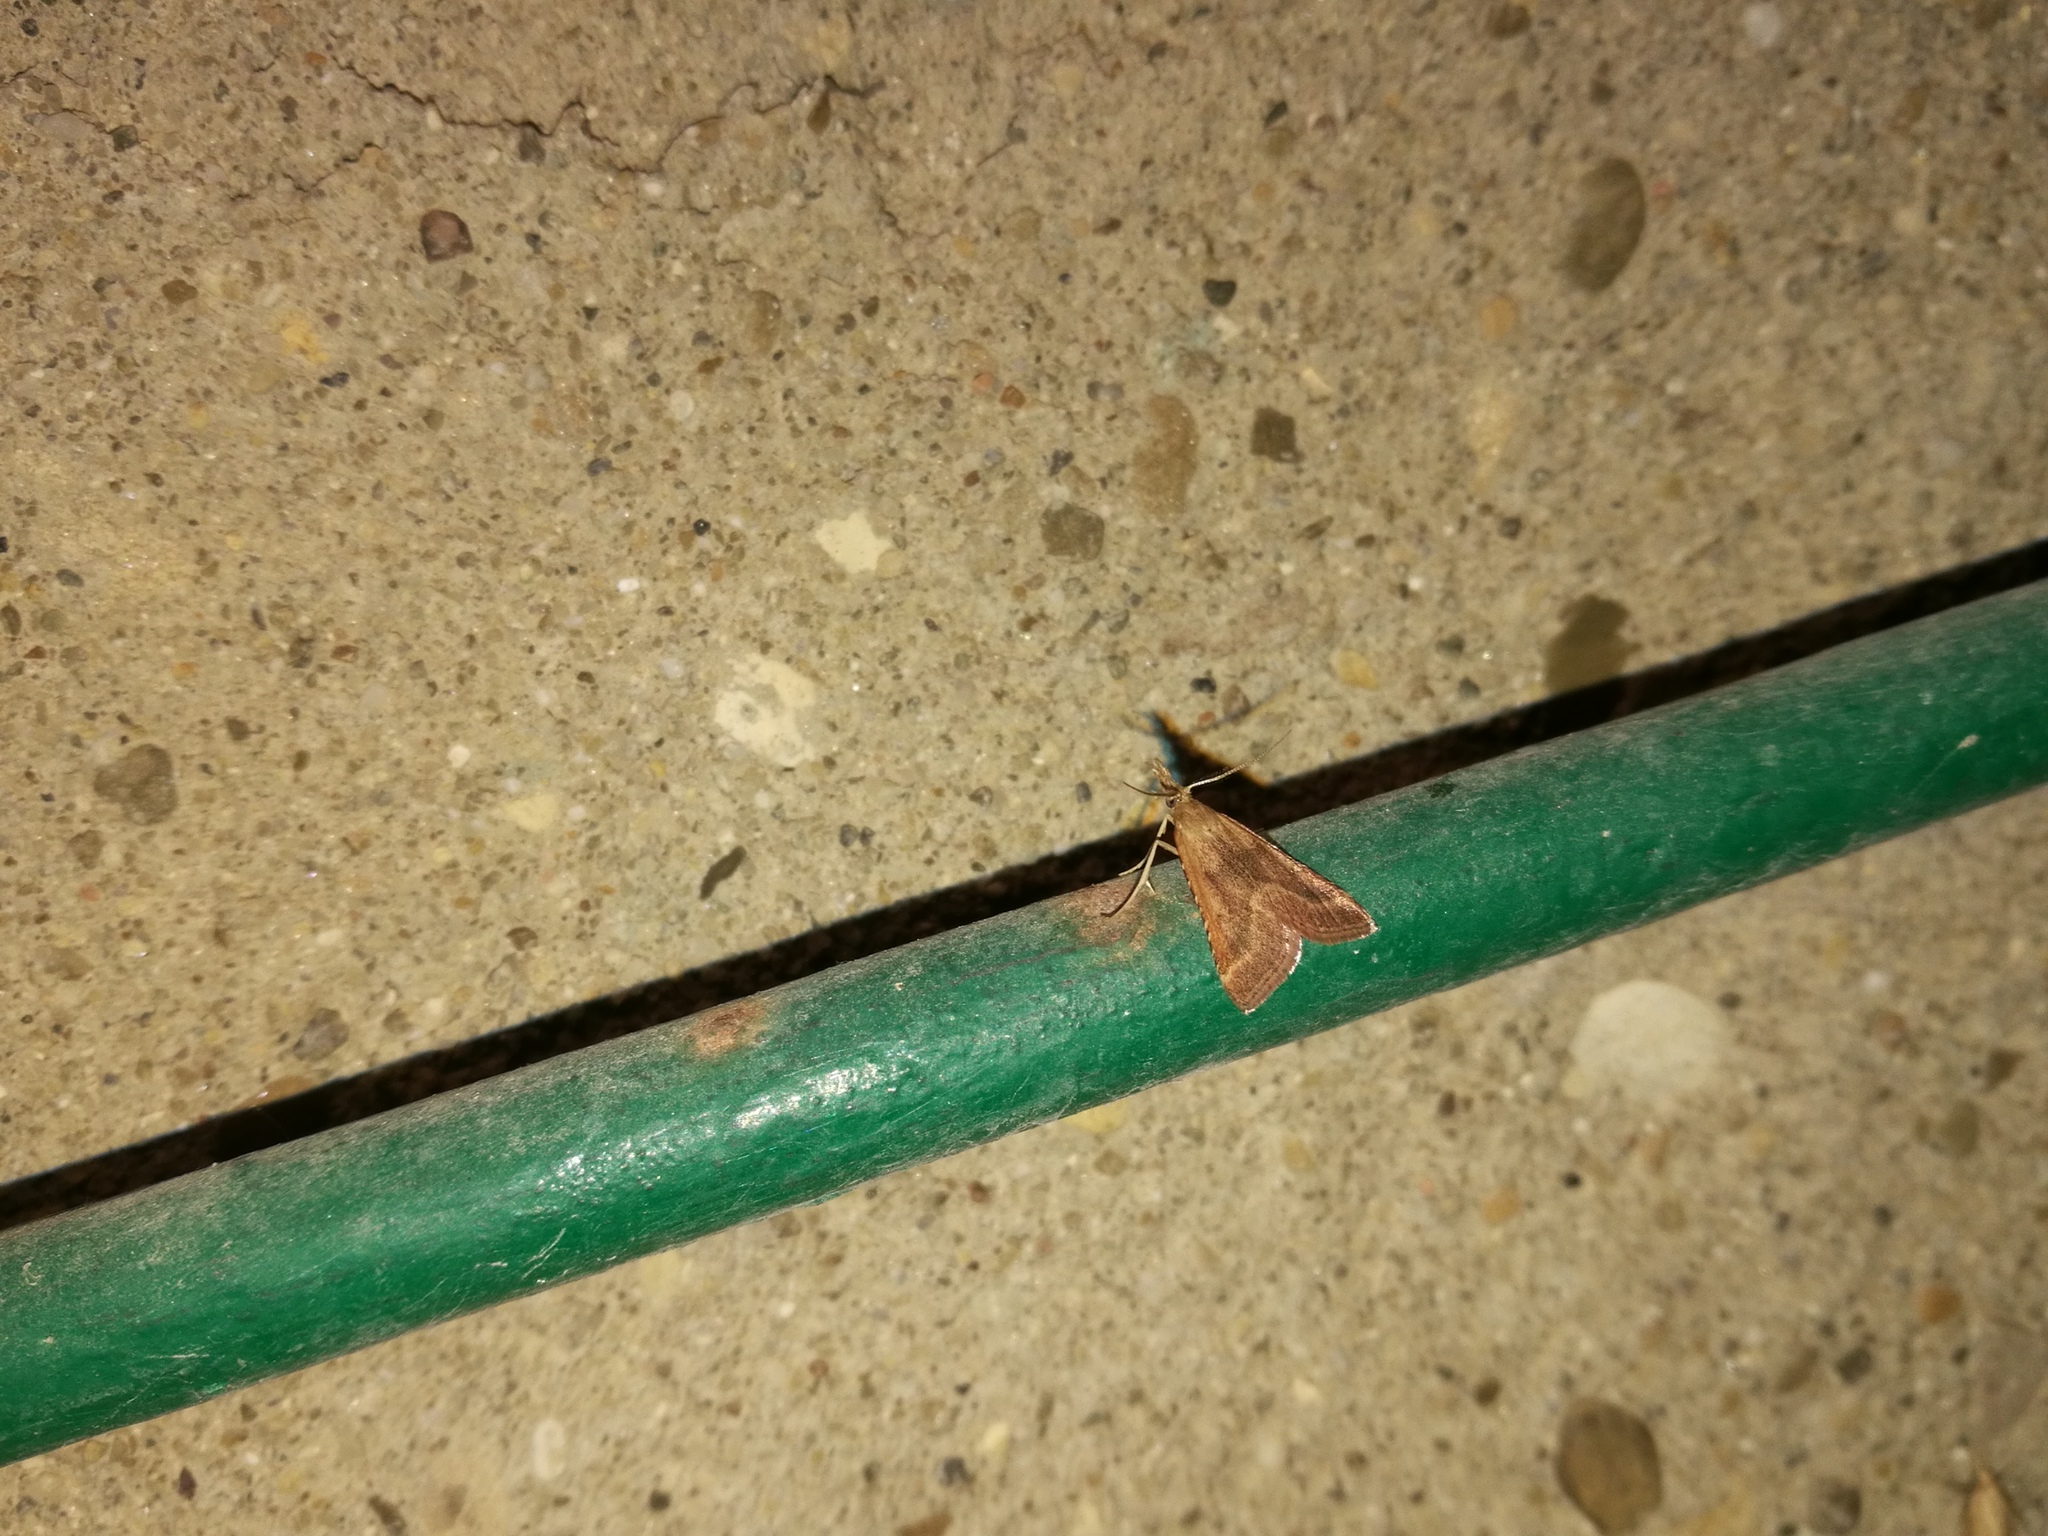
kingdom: Animalia
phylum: Arthropoda
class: Insecta
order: Lepidoptera
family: Pyralidae
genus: Synaphe
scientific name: Synaphe punctalis
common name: Long-legged tabby
